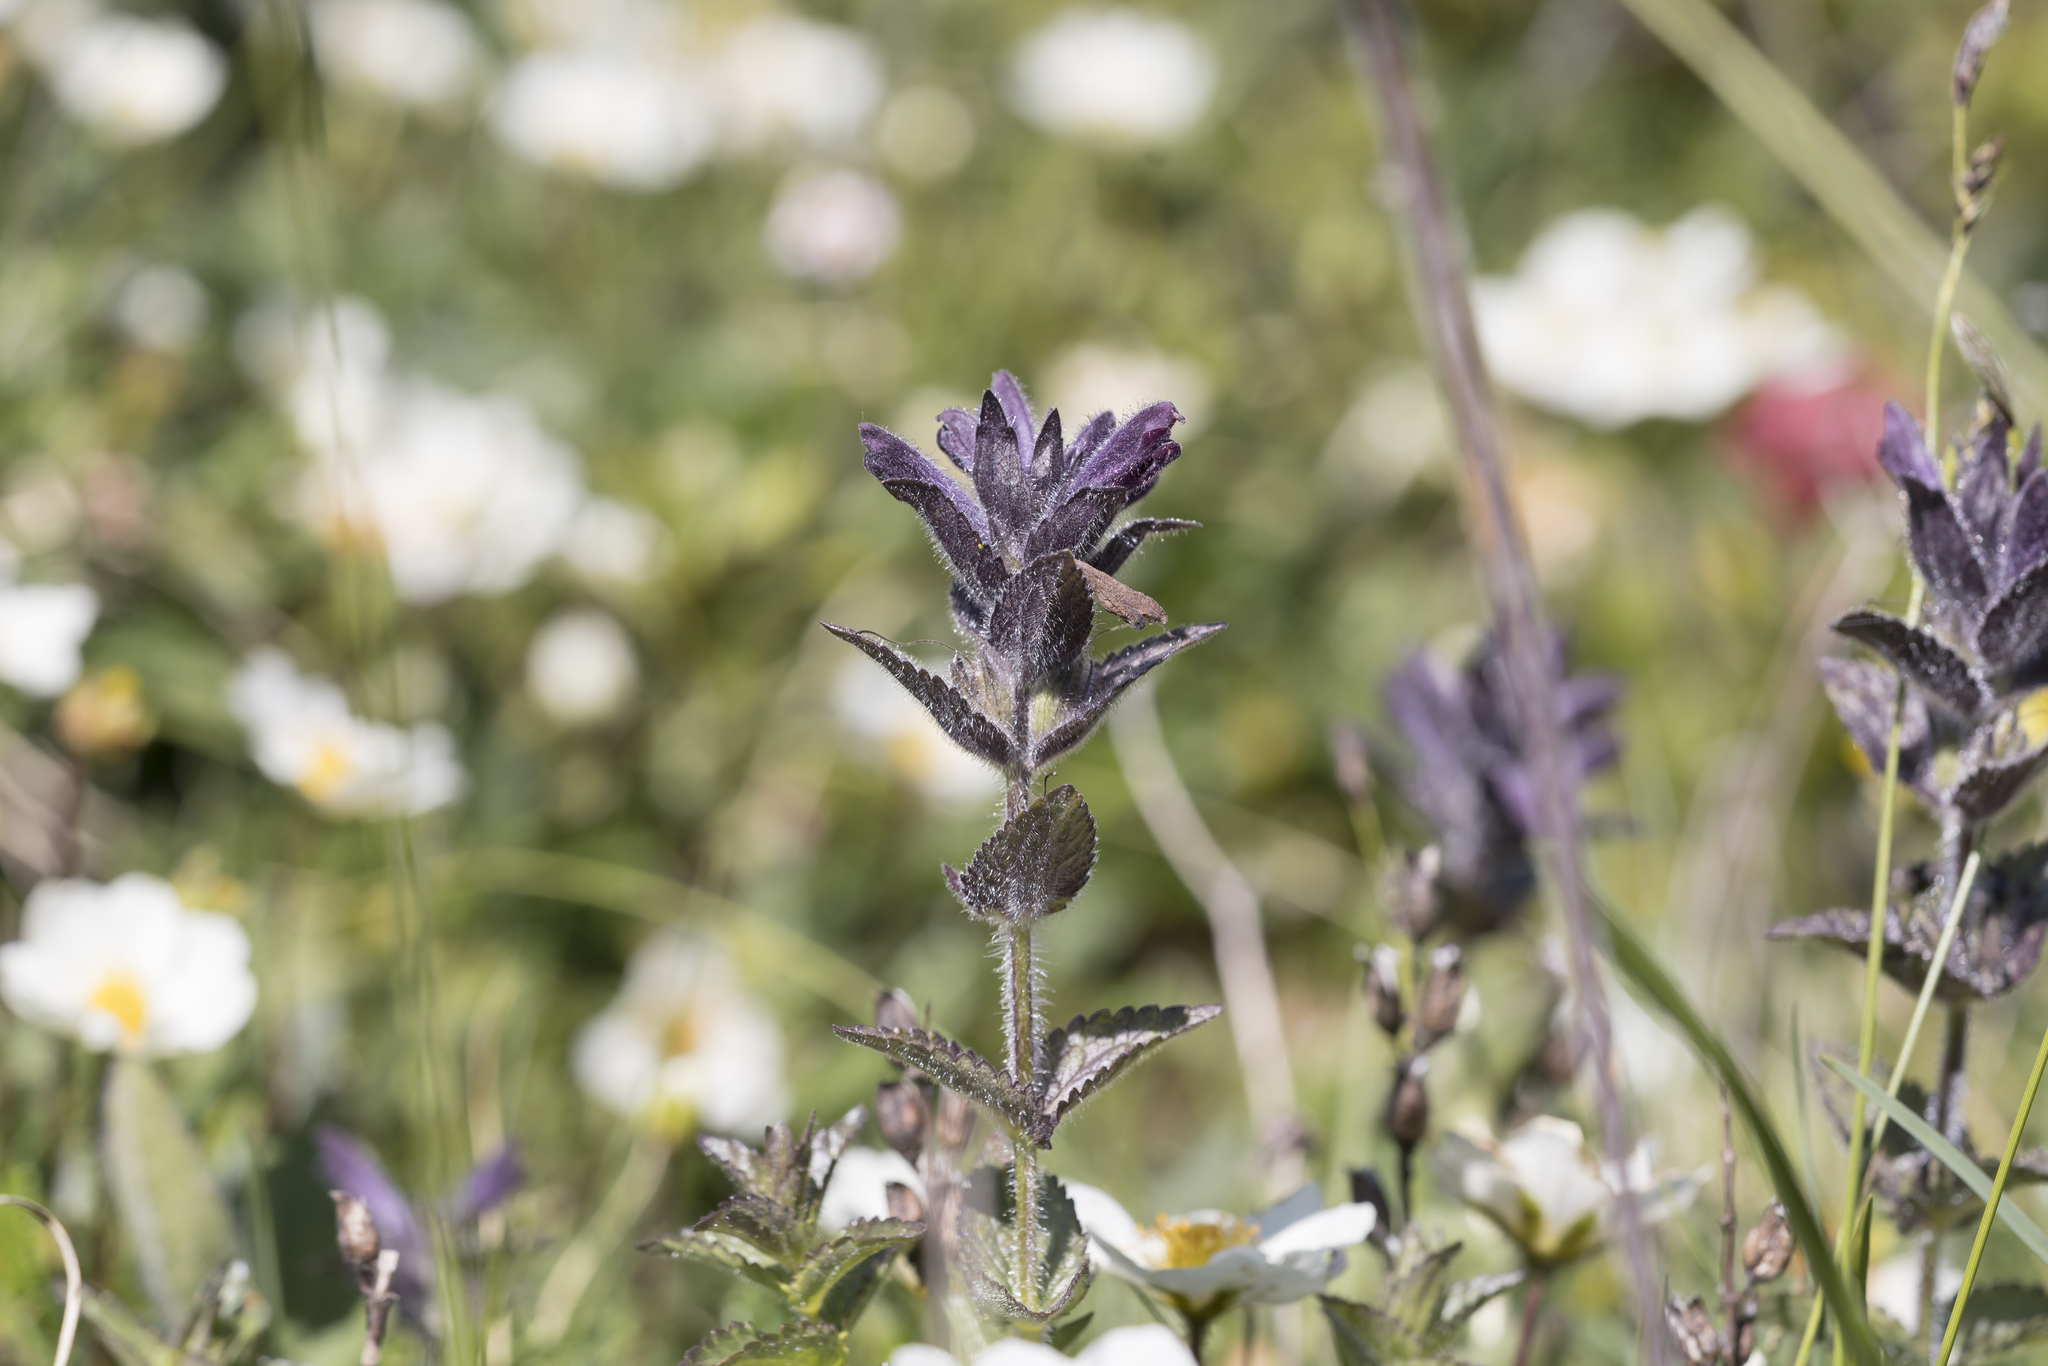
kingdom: Plantae
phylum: Tracheophyta
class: Magnoliopsida
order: Lamiales
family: Orobanchaceae
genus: Bartsia
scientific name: Bartsia alpina
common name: Alpine bartsia
